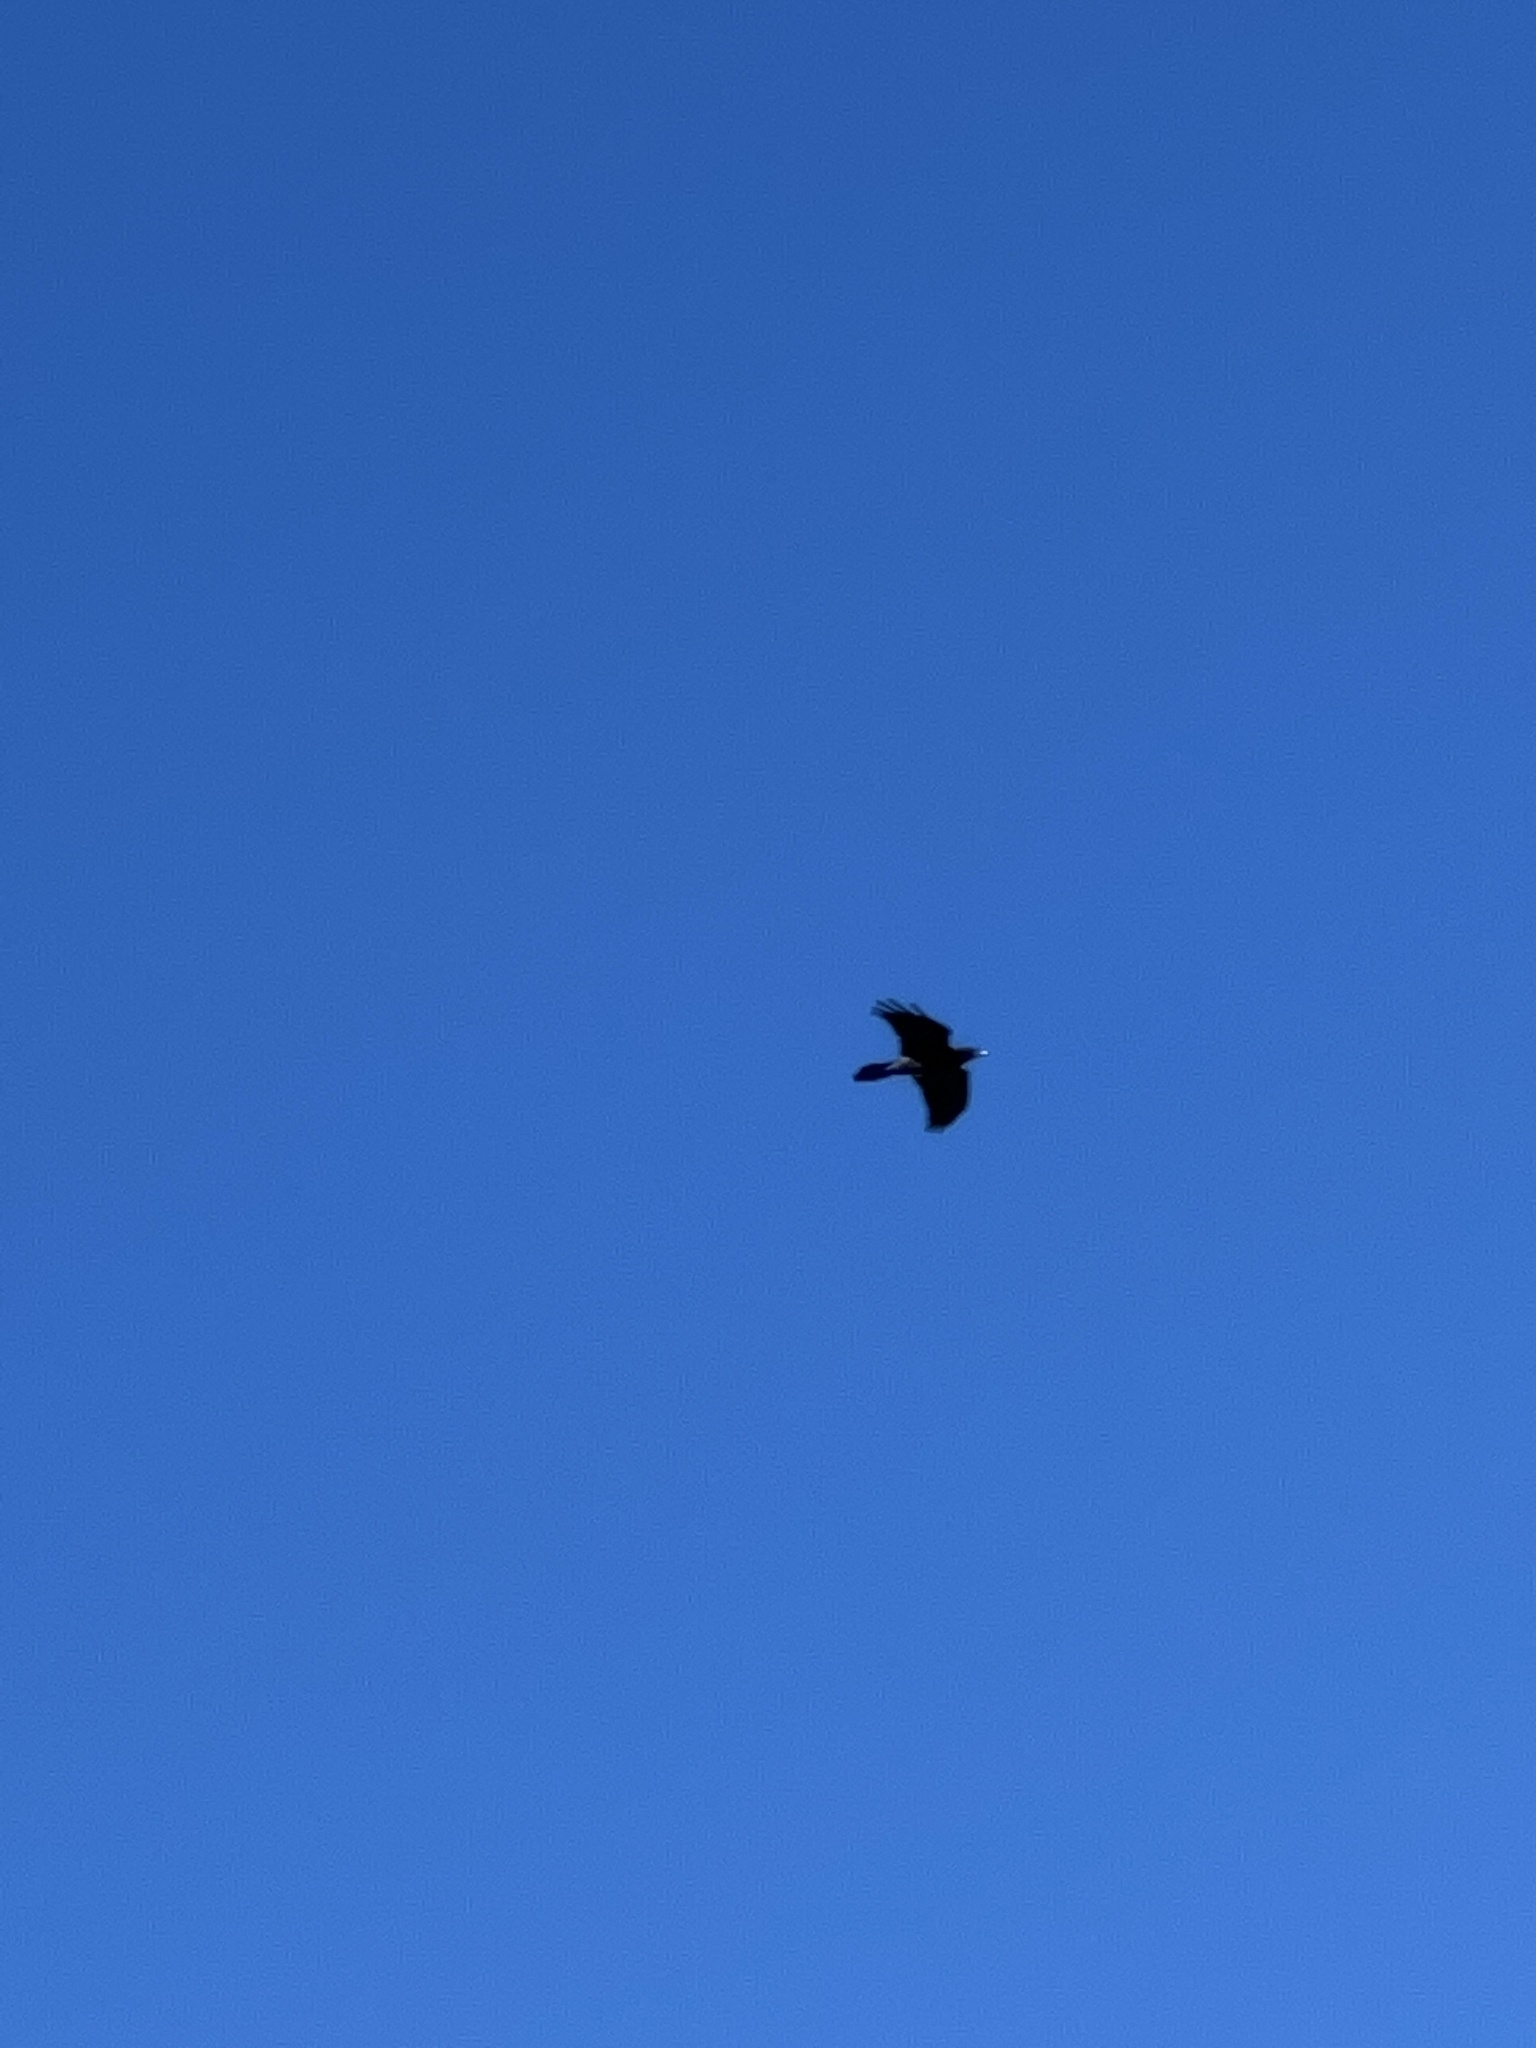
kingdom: Animalia
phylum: Chordata
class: Aves
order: Passeriformes
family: Corvidae
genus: Corvus
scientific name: Corvus corax
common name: Common raven
